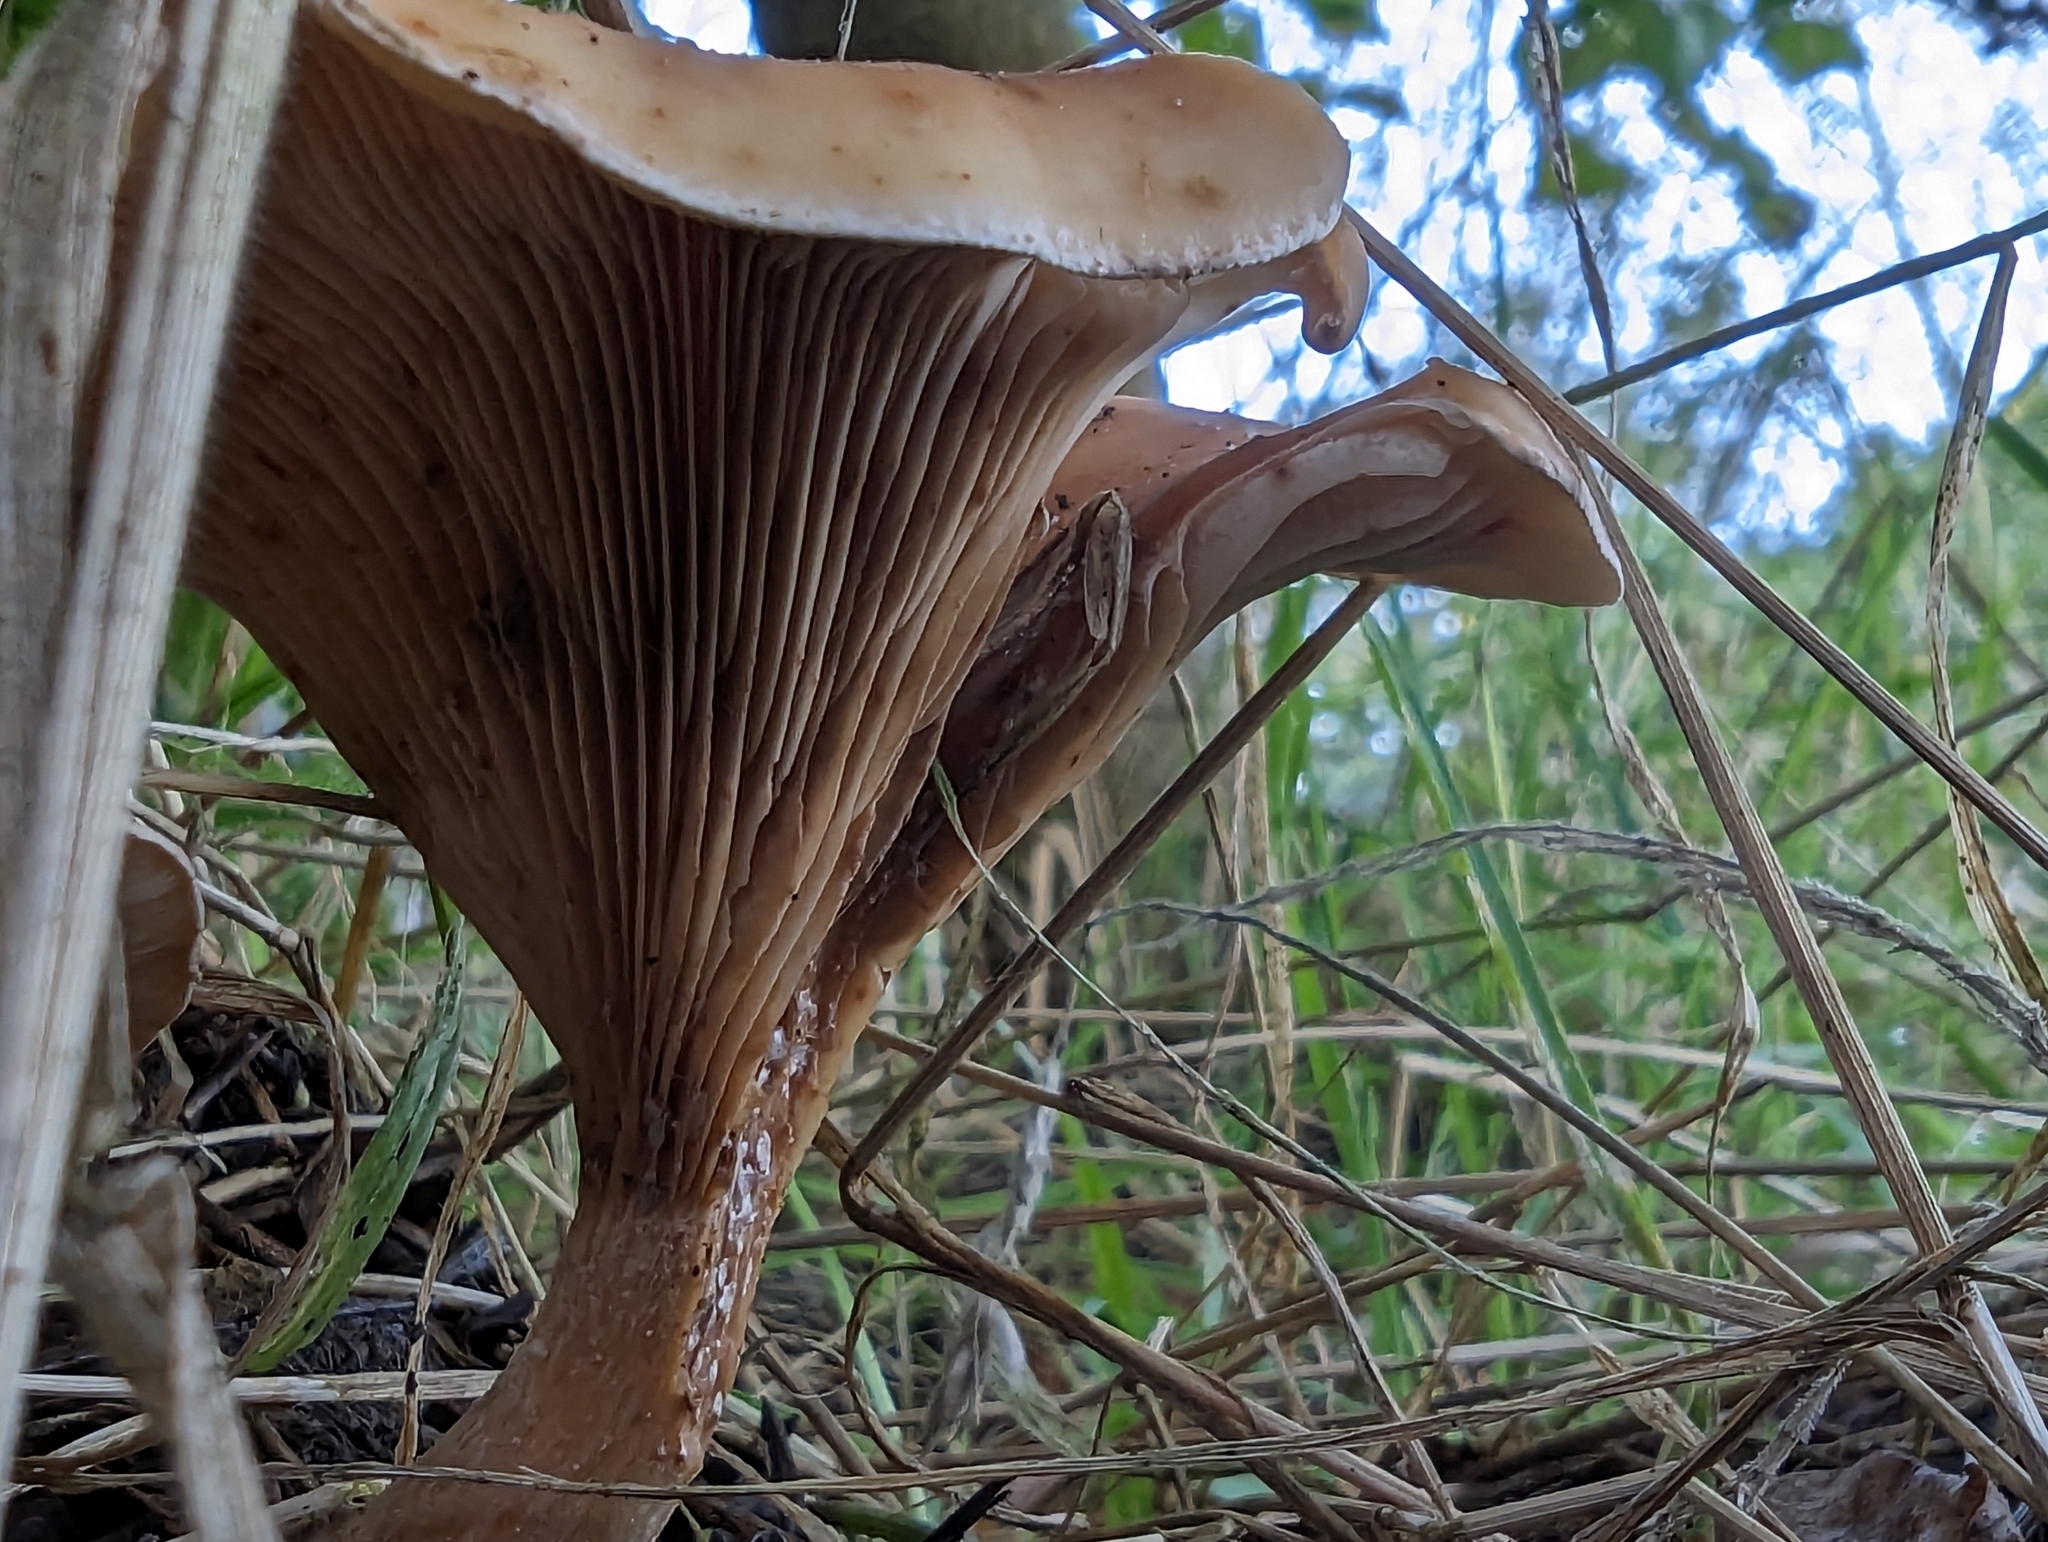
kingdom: Fungi
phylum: Basidiomycota
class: Agaricomycetes
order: Agaricales
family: Tricholomataceae
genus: Paralepista
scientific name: Paralepista flaccida
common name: Tawny funnel cap
